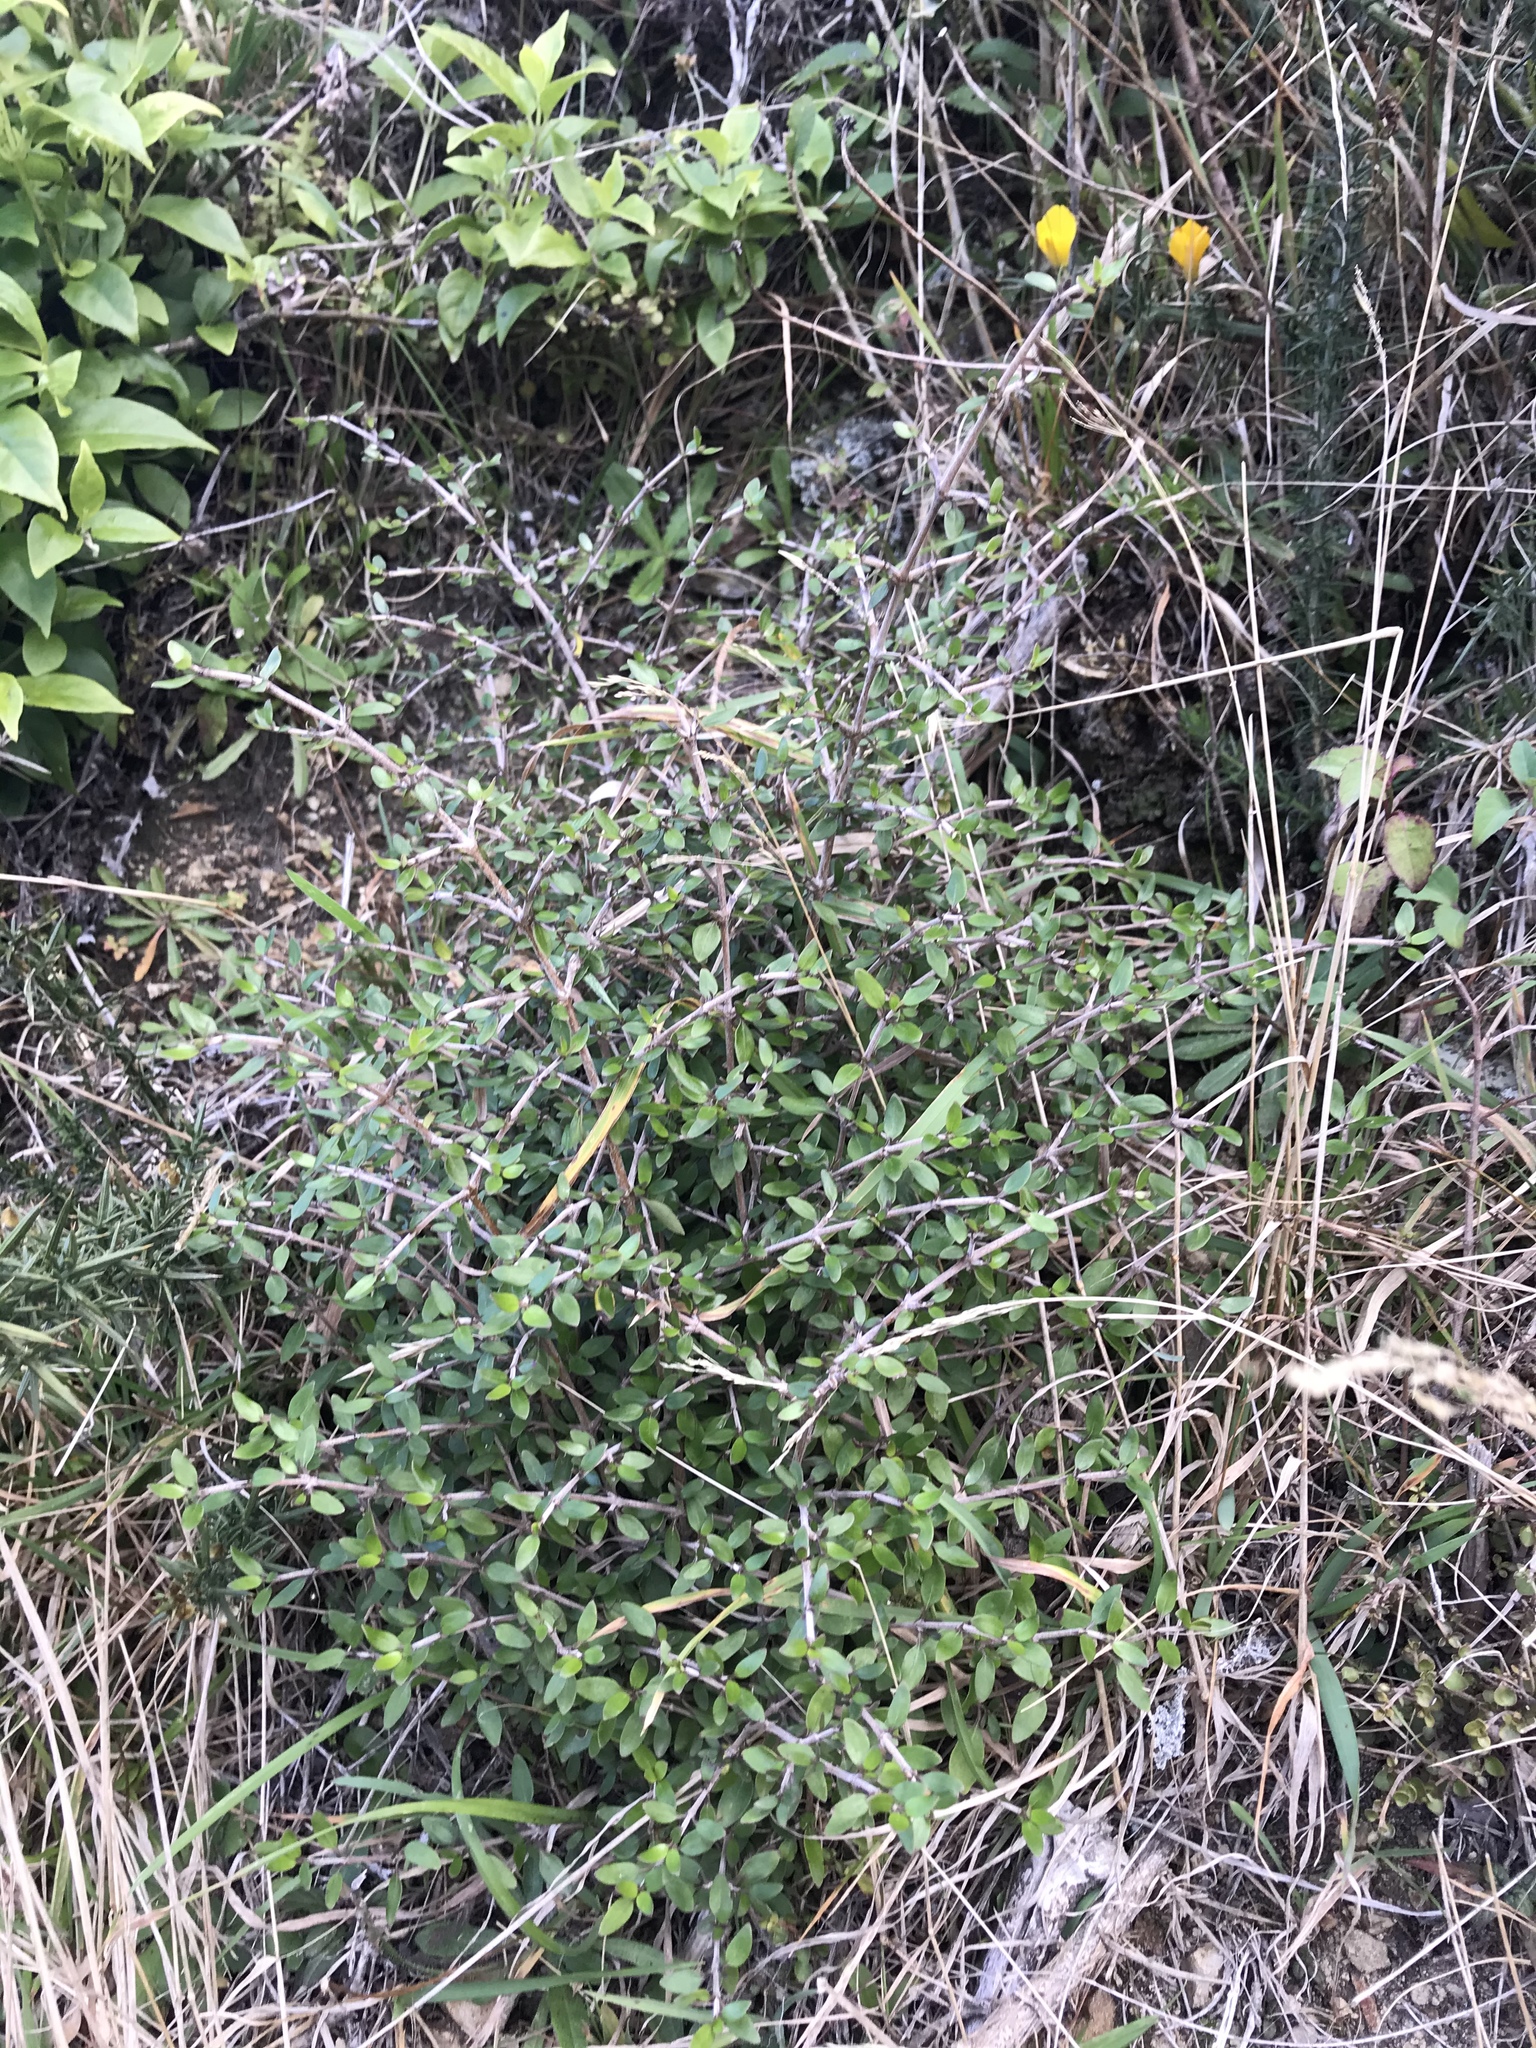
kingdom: Plantae
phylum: Tracheophyta
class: Magnoliopsida
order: Gentianales
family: Rubiaceae
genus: Coprosma
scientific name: Coprosma cunninghamii
